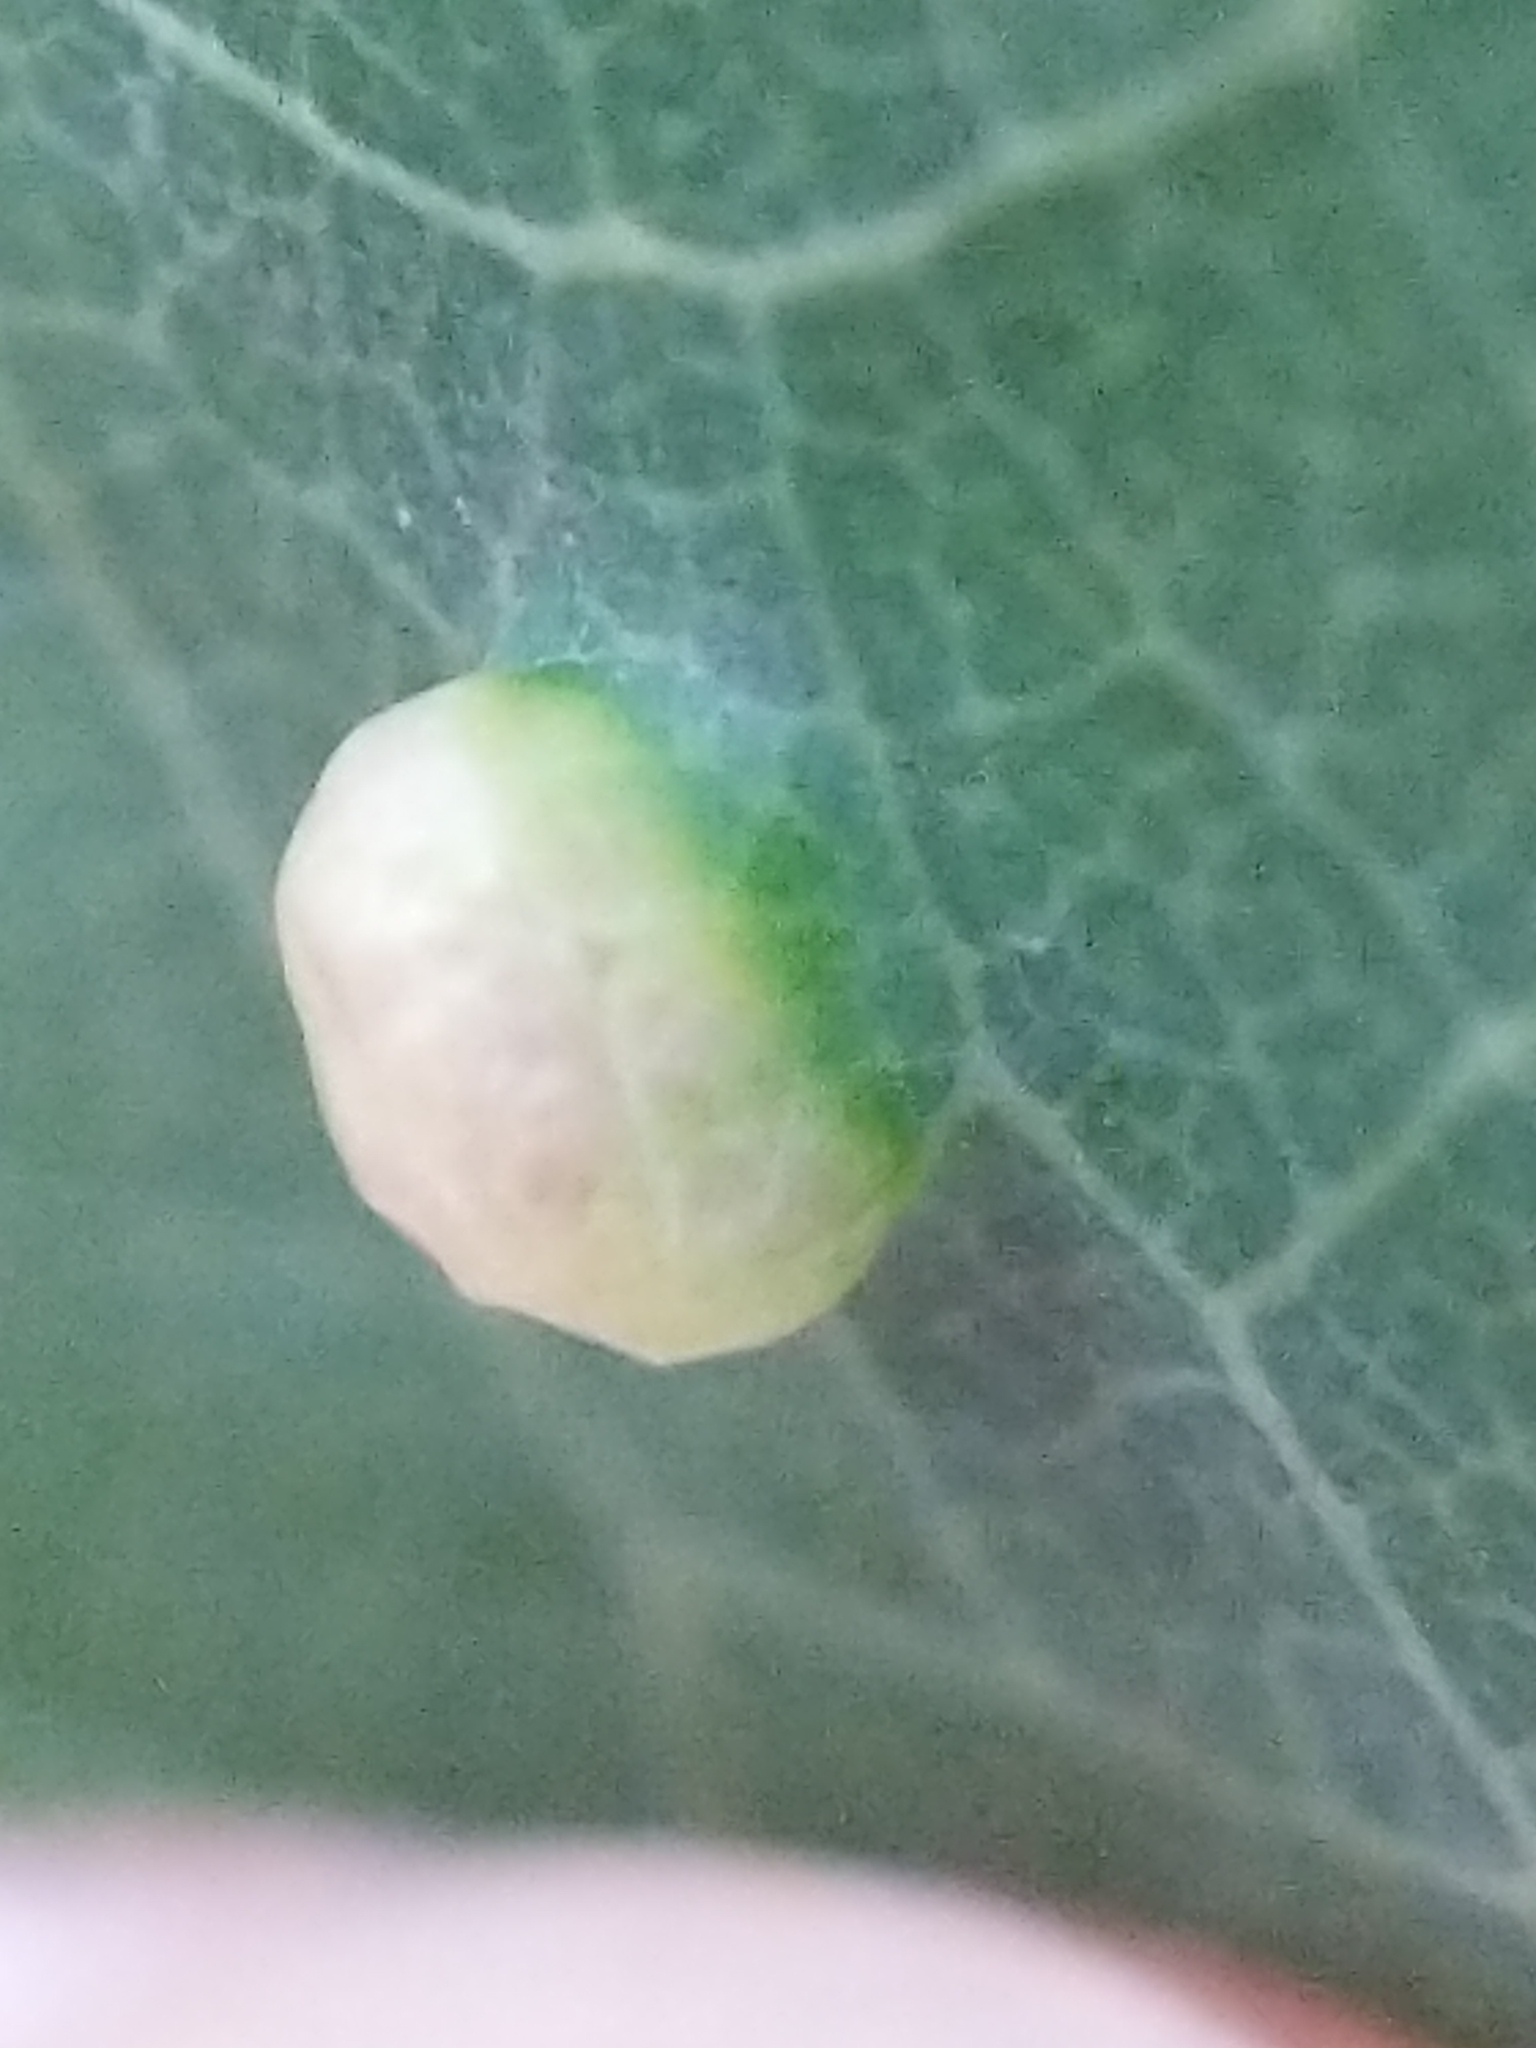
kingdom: Animalia
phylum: Arthropoda
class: Arachnida
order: Trombidiformes
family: Eriophyidae
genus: Phyllocoptes
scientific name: Phyllocoptes
